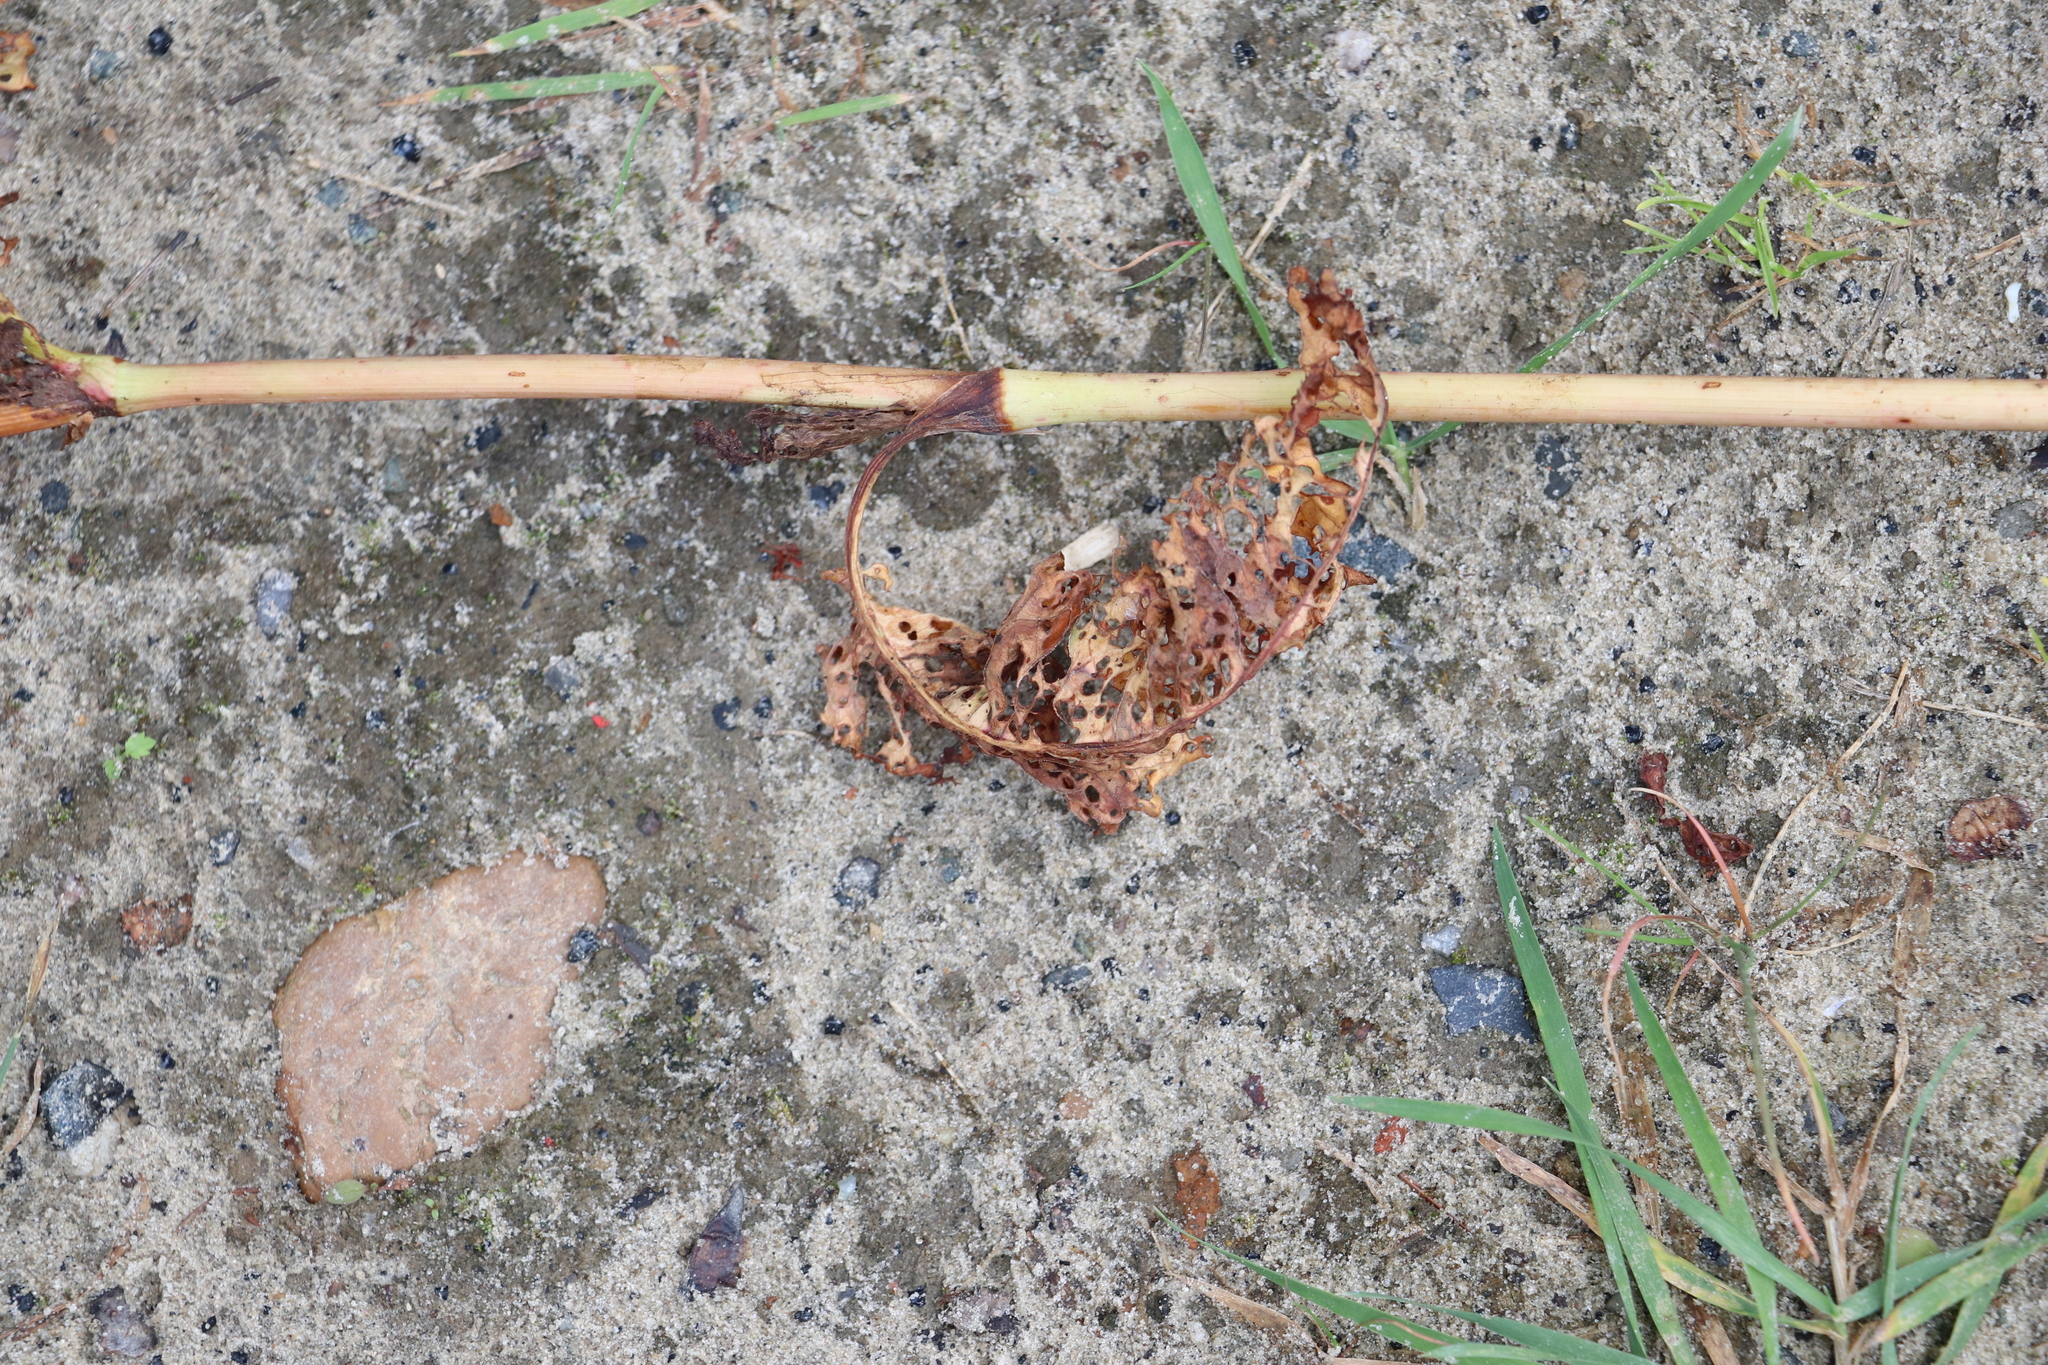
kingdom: Plantae
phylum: Tracheophyta
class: Magnoliopsida
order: Caryophyllales
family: Polygonaceae
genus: Rumex
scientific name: Rumex pseudonatronatus
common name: Field dock
